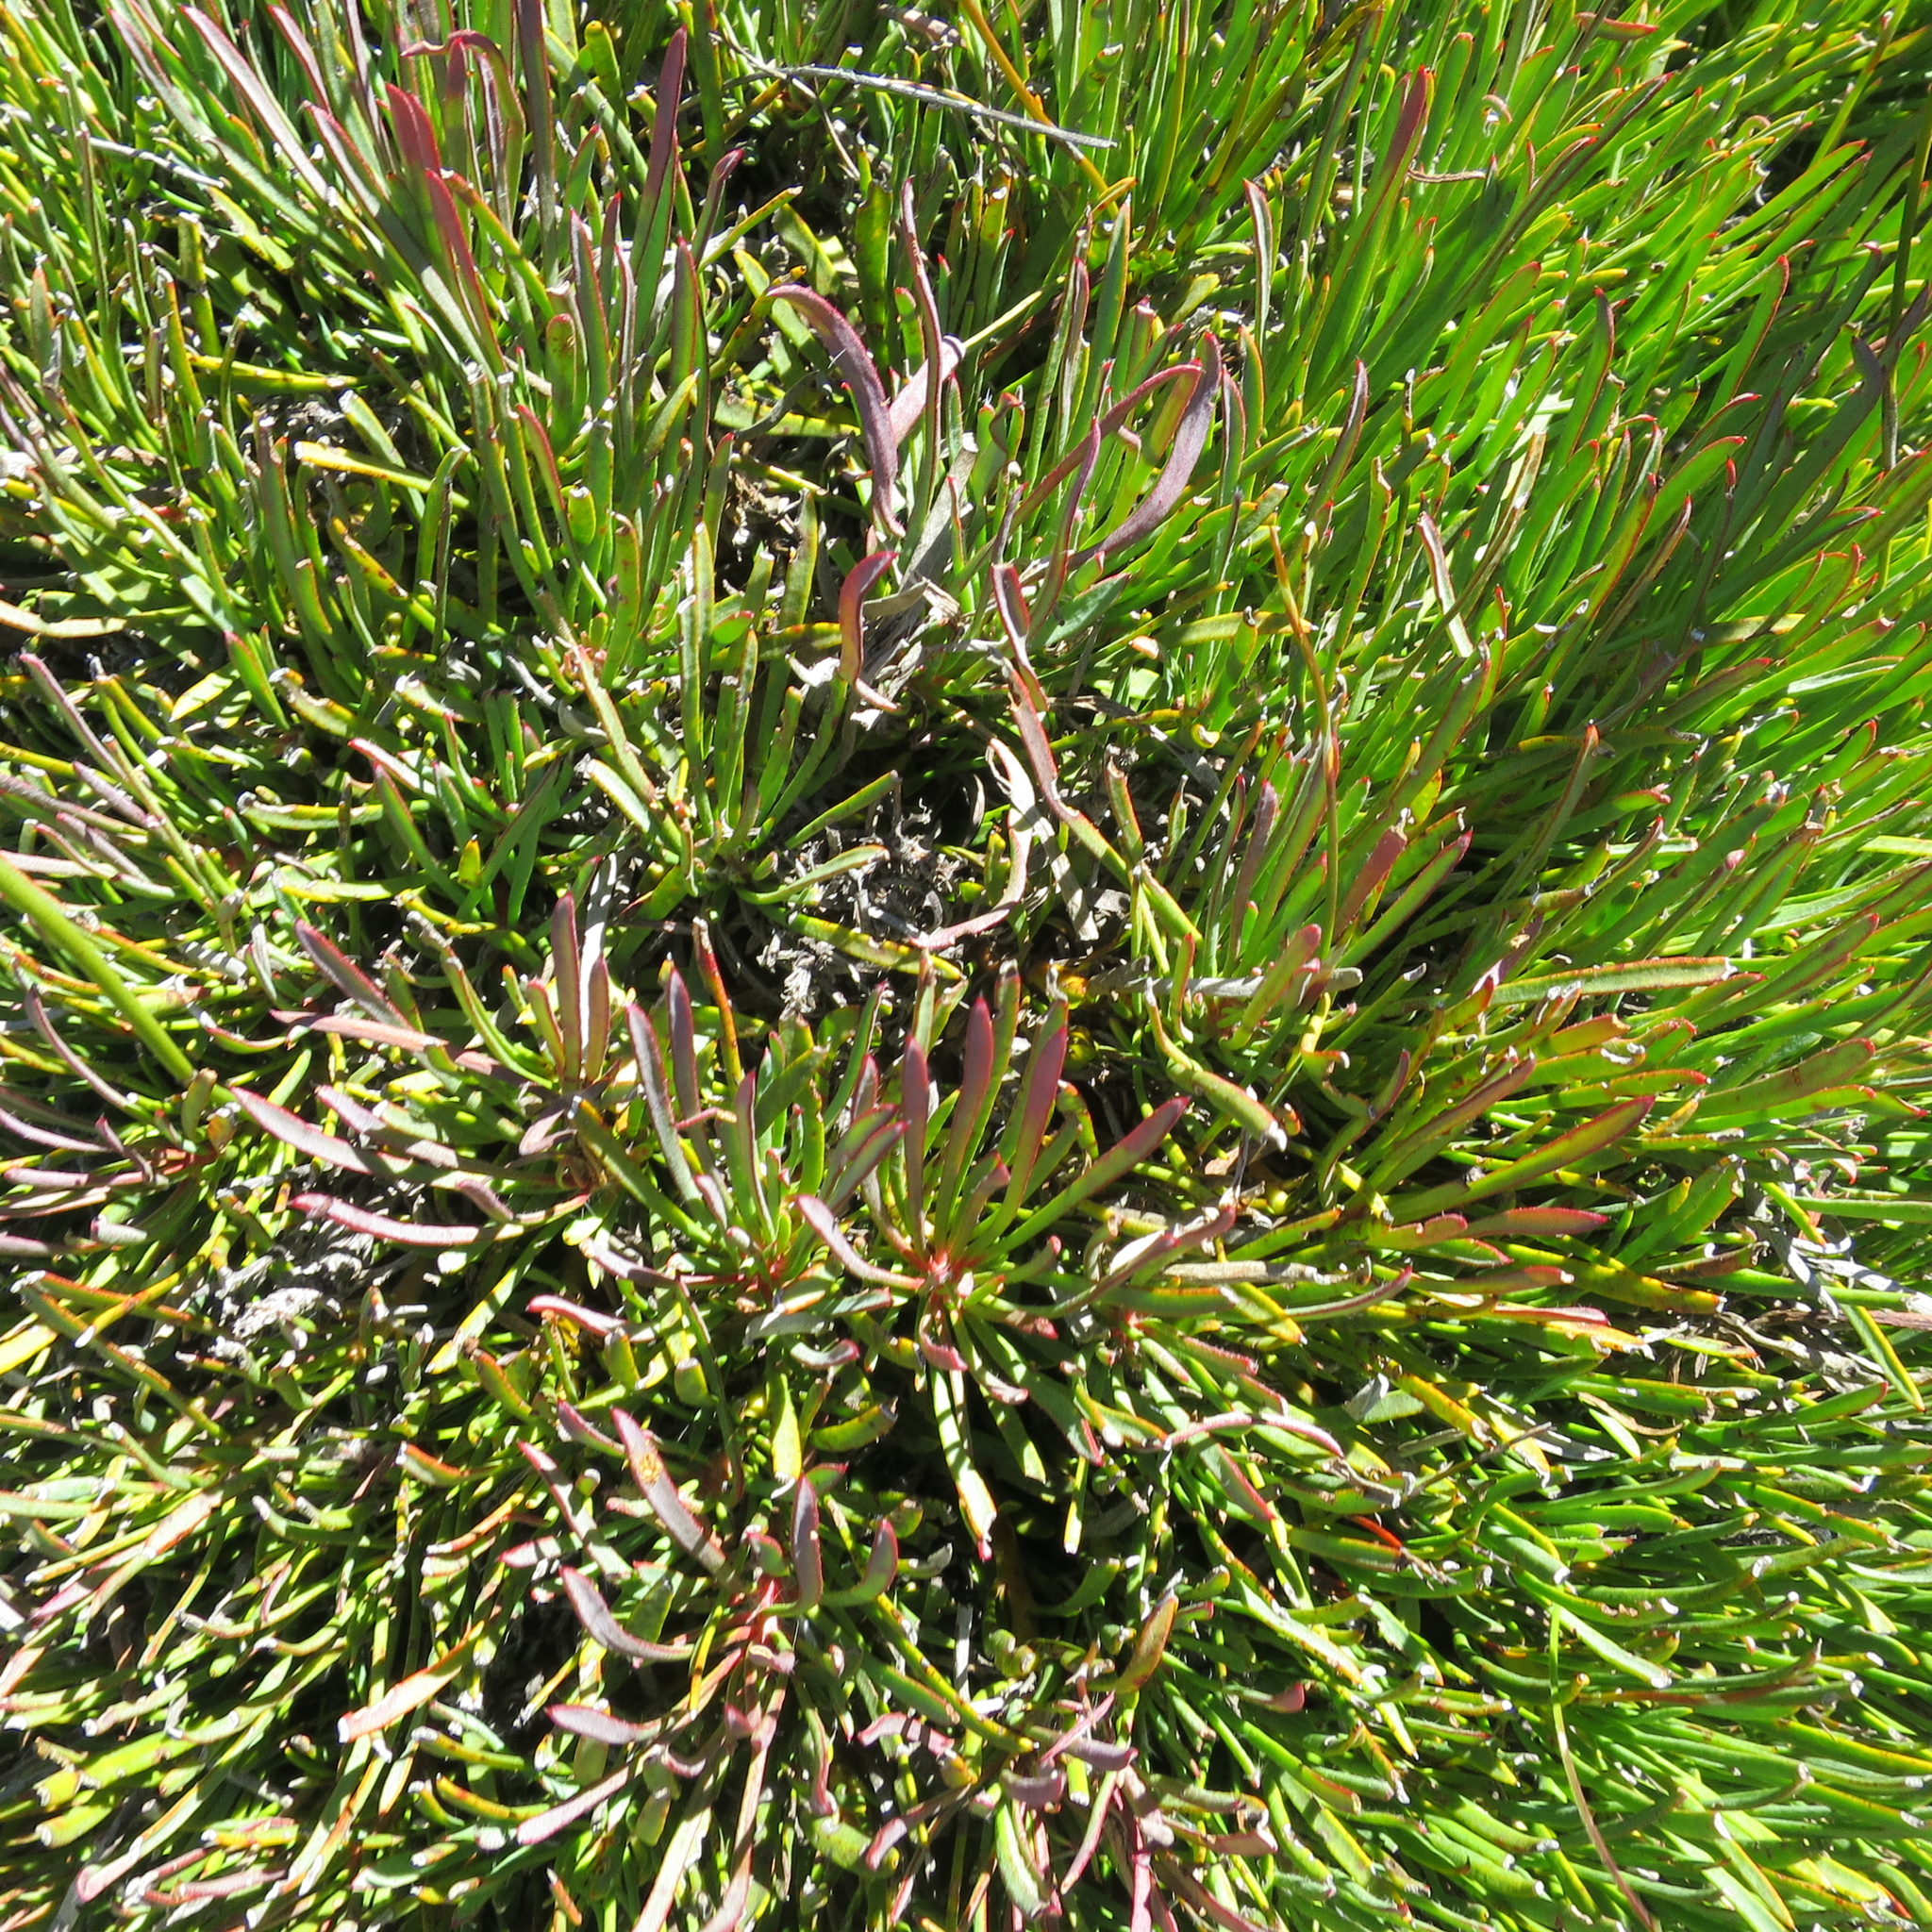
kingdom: Plantae
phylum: Tracheophyta
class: Magnoliopsida
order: Proteales
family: Proteaceae
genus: Protea
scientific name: Protea montana
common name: Swartberg sugarbush
